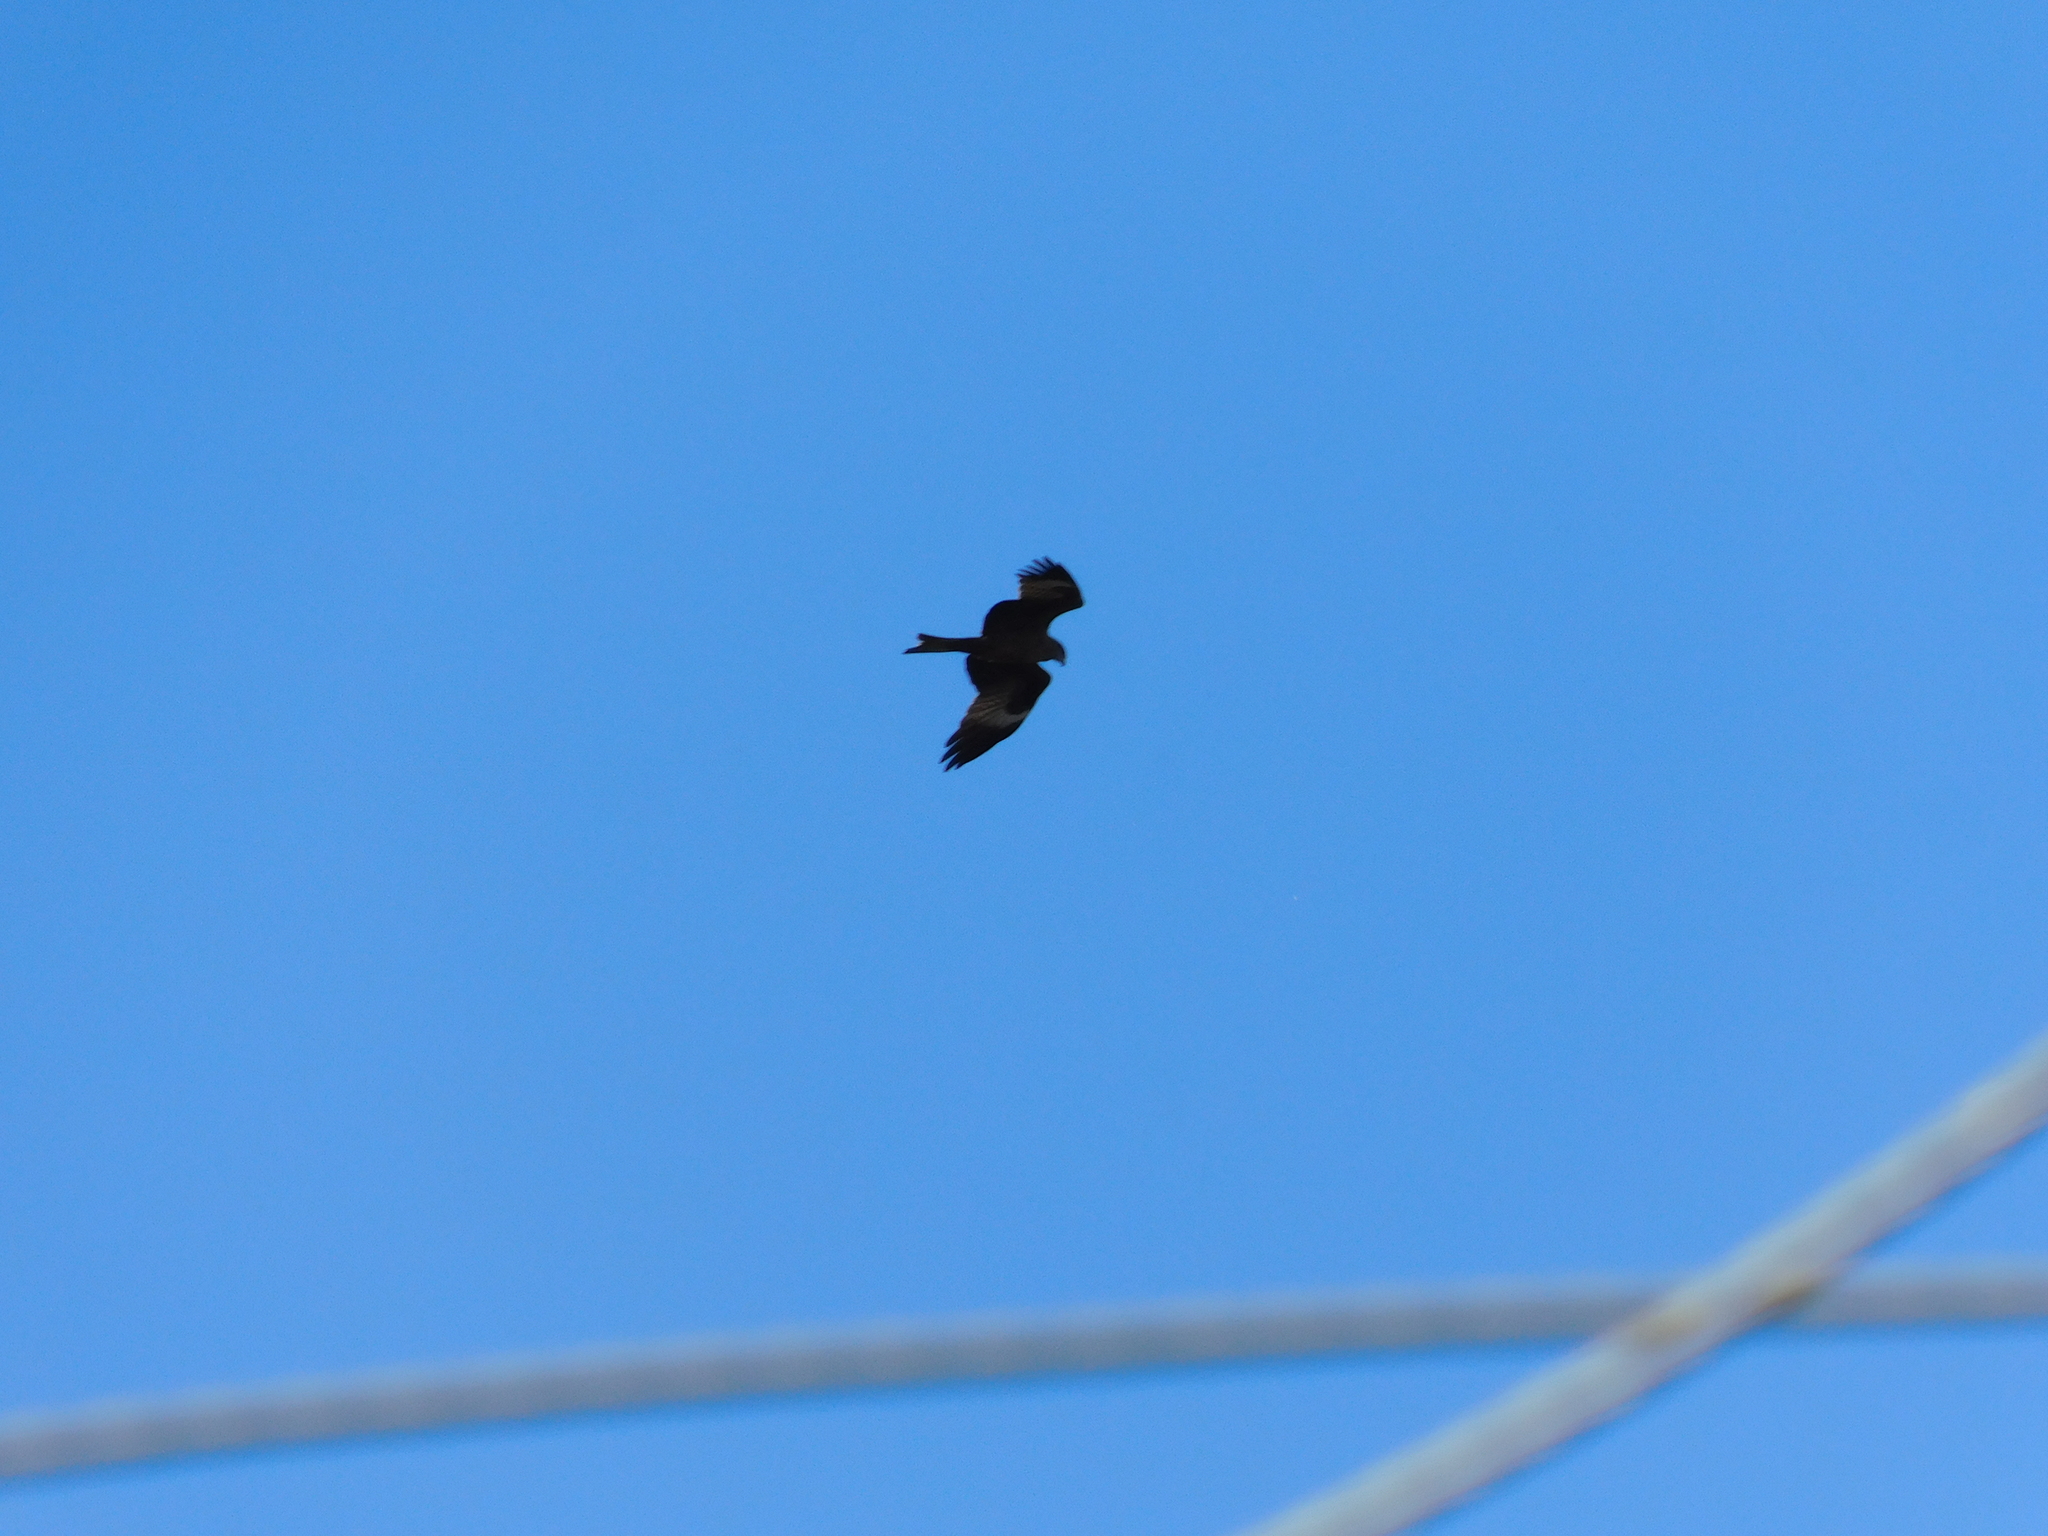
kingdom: Animalia
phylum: Chordata
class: Aves
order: Accipitriformes
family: Accipitridae
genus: Milvus
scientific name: Milvus migrans
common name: Black kite
